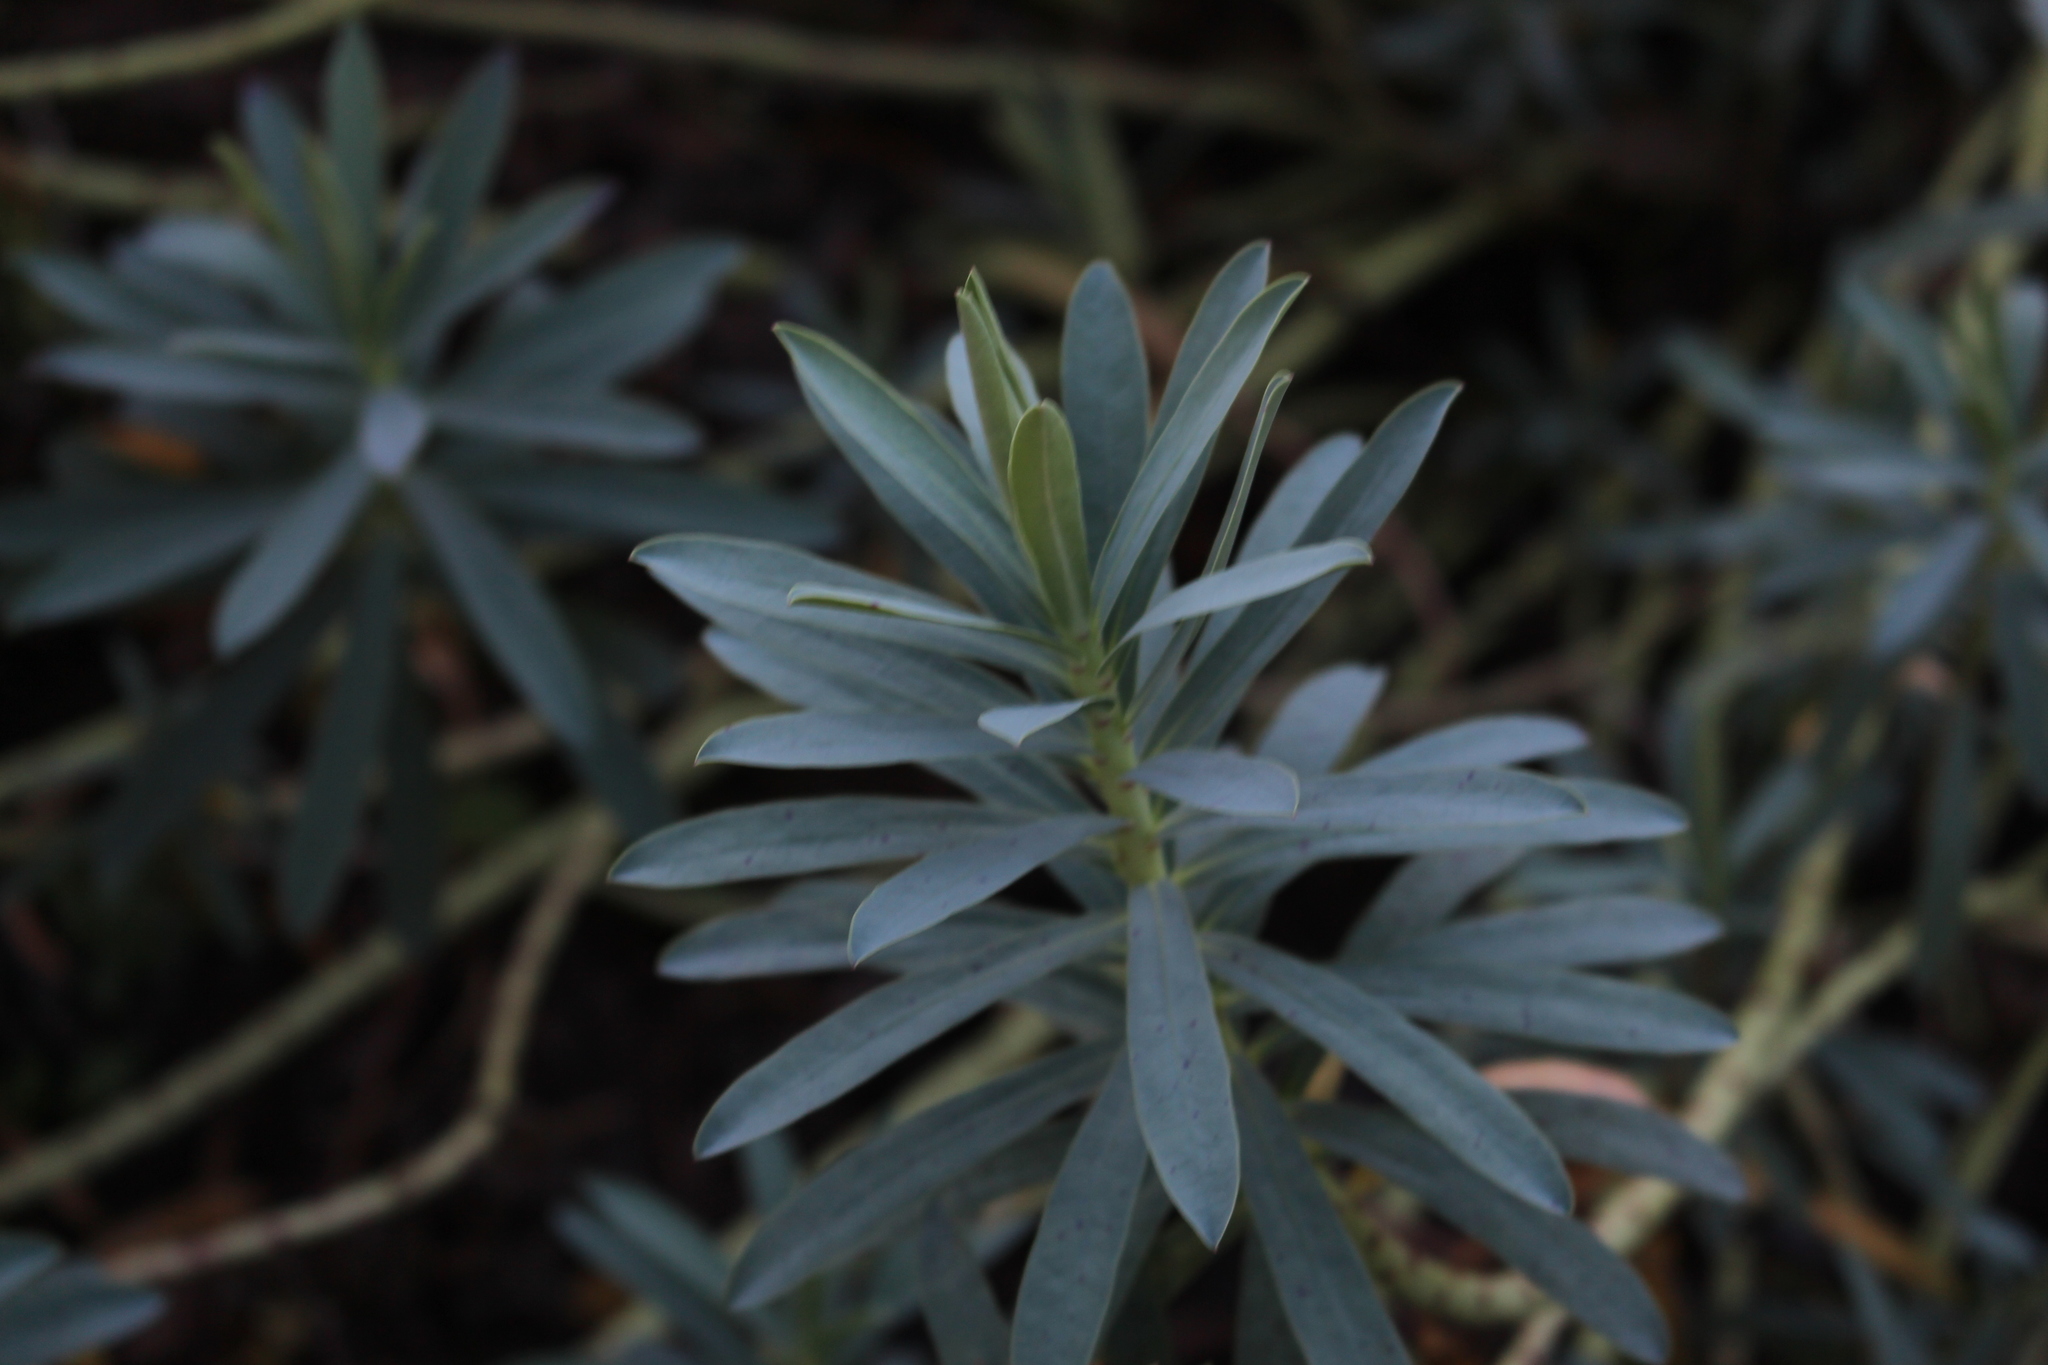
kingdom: Plantae
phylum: Tracheophyta
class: Magnoliopsida
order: Malpighiales
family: Euphorbiaceae
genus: Euphorbia
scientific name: Euphorbia glauca
